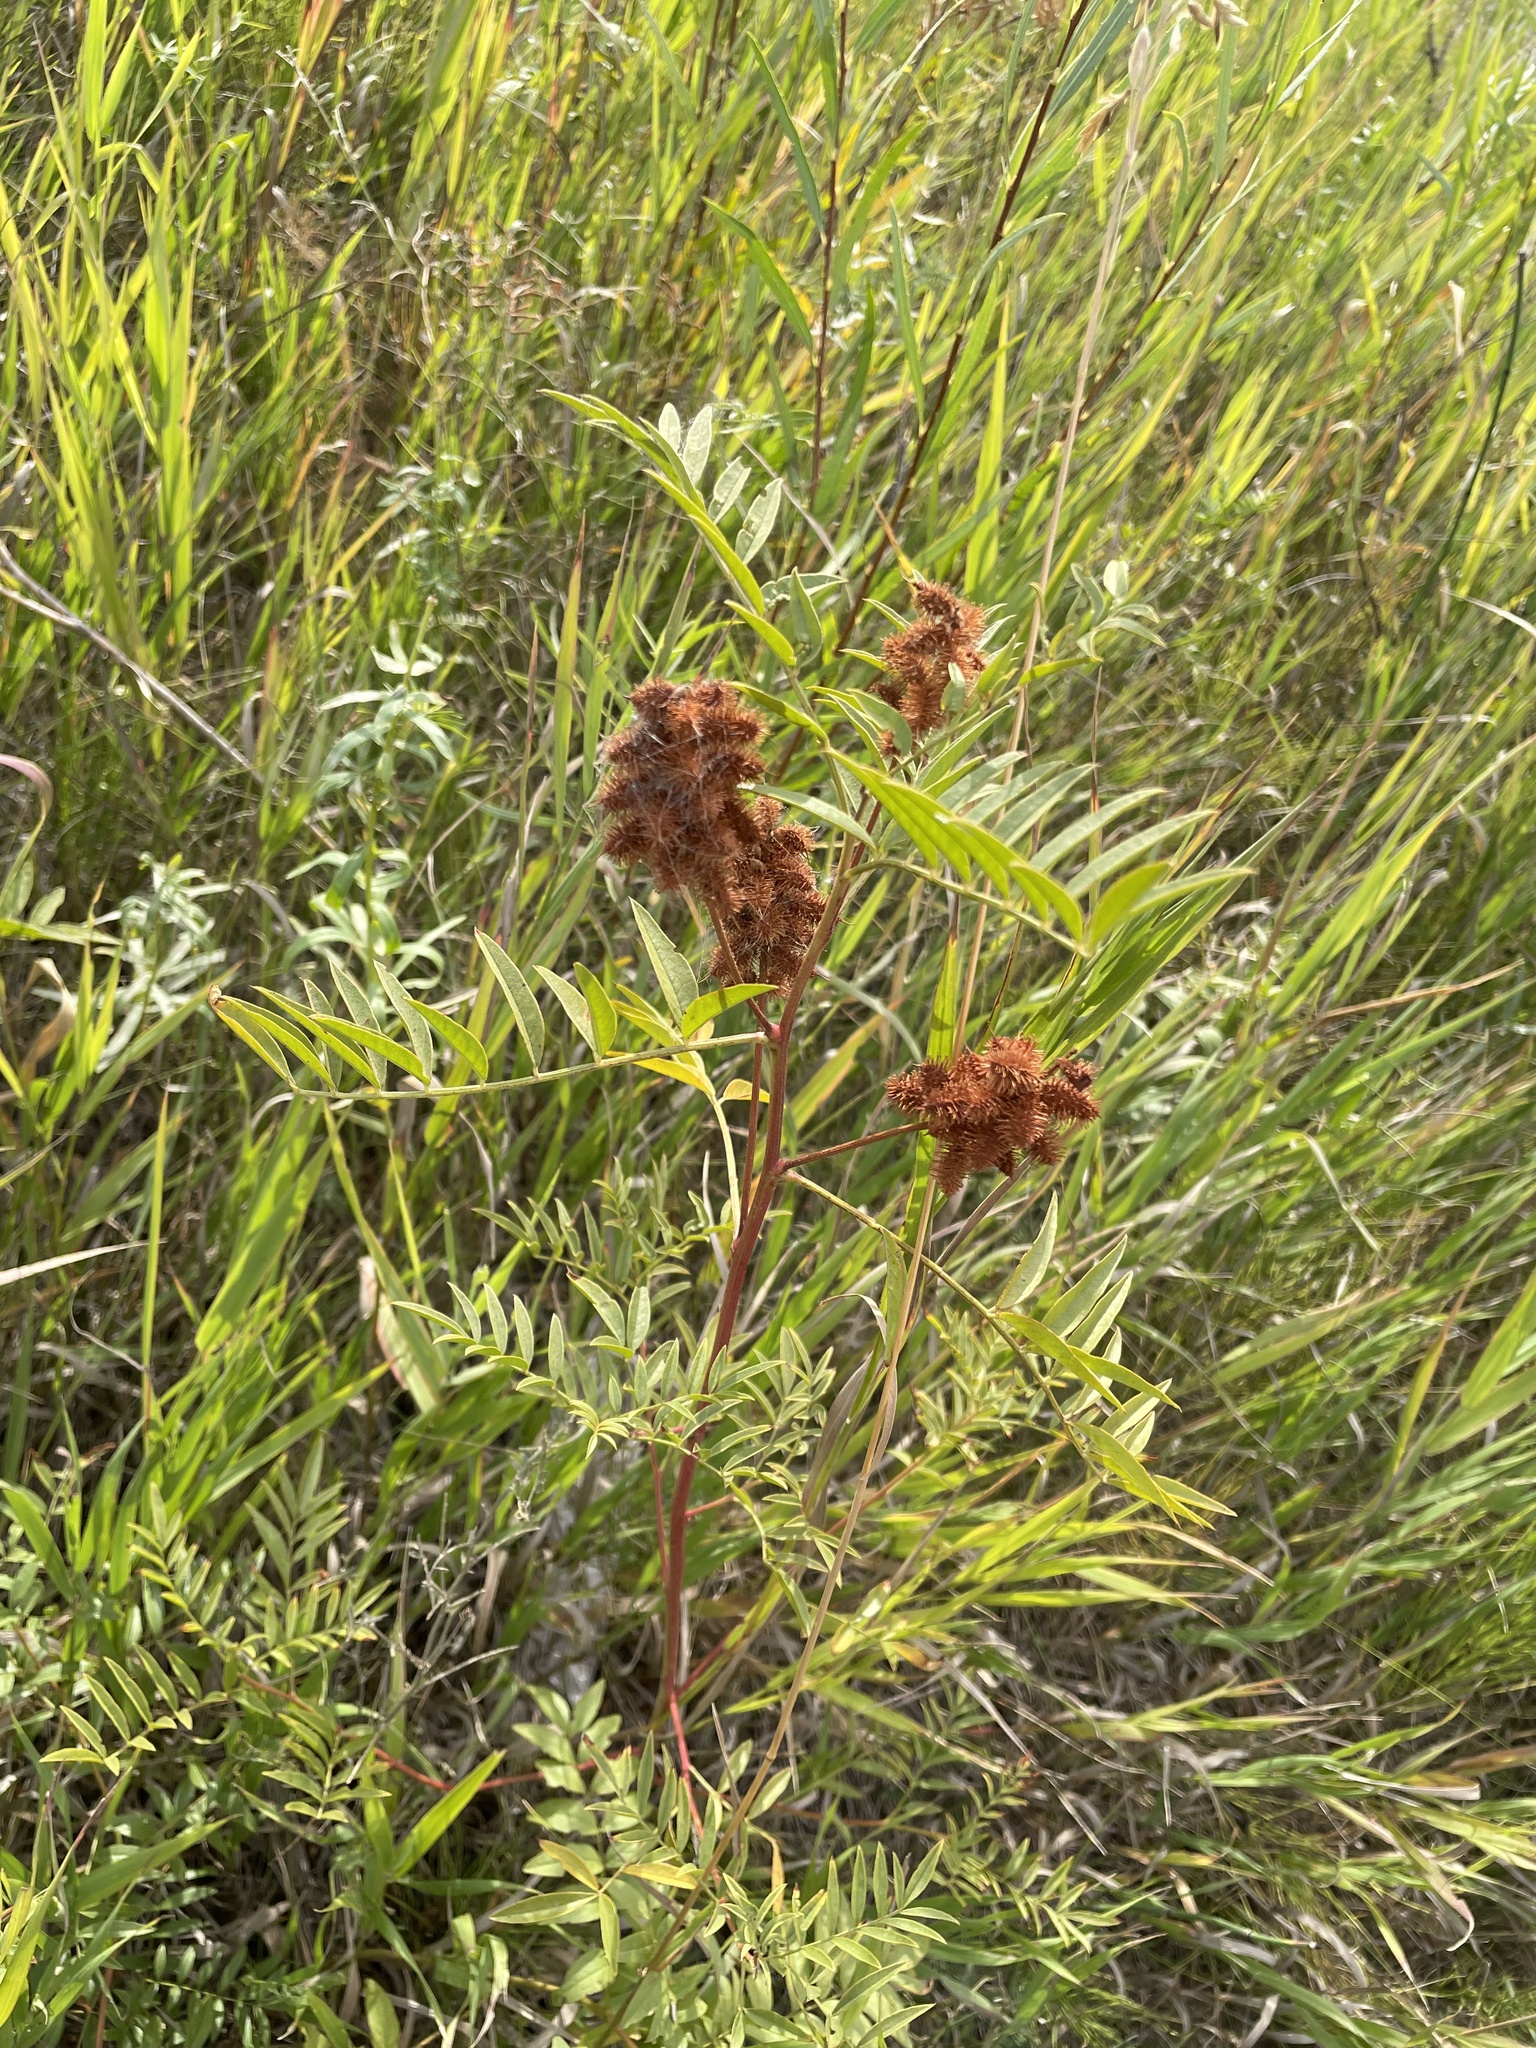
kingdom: Plantae
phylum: Tracheophyta
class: Magnoliopsida
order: Fabales
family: Fabaceae
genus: Glycyrrhiza
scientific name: Glycyrrhiza lepidota
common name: American liquorice
